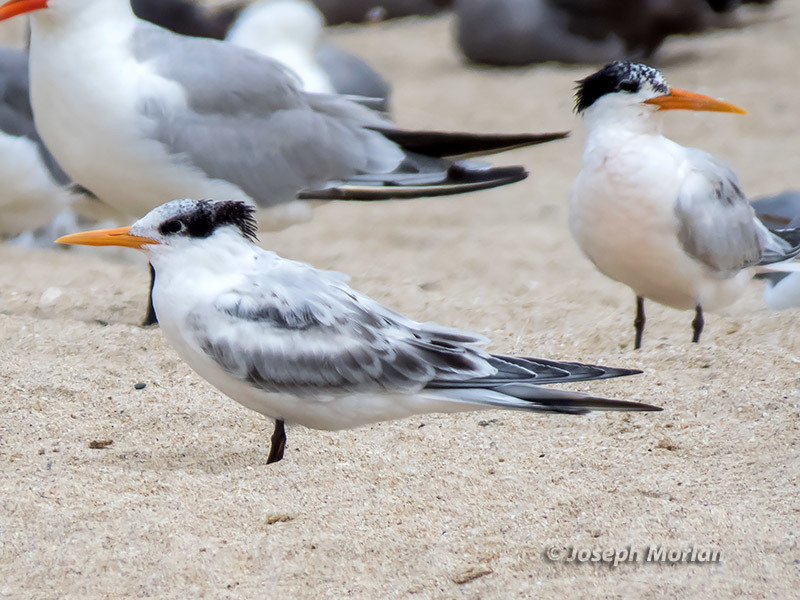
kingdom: Animalia
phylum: Chordata
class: Aves
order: Charadriiformes
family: Laridae
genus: Thalasseus
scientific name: Thalasseus elegans
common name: Elegant tern
